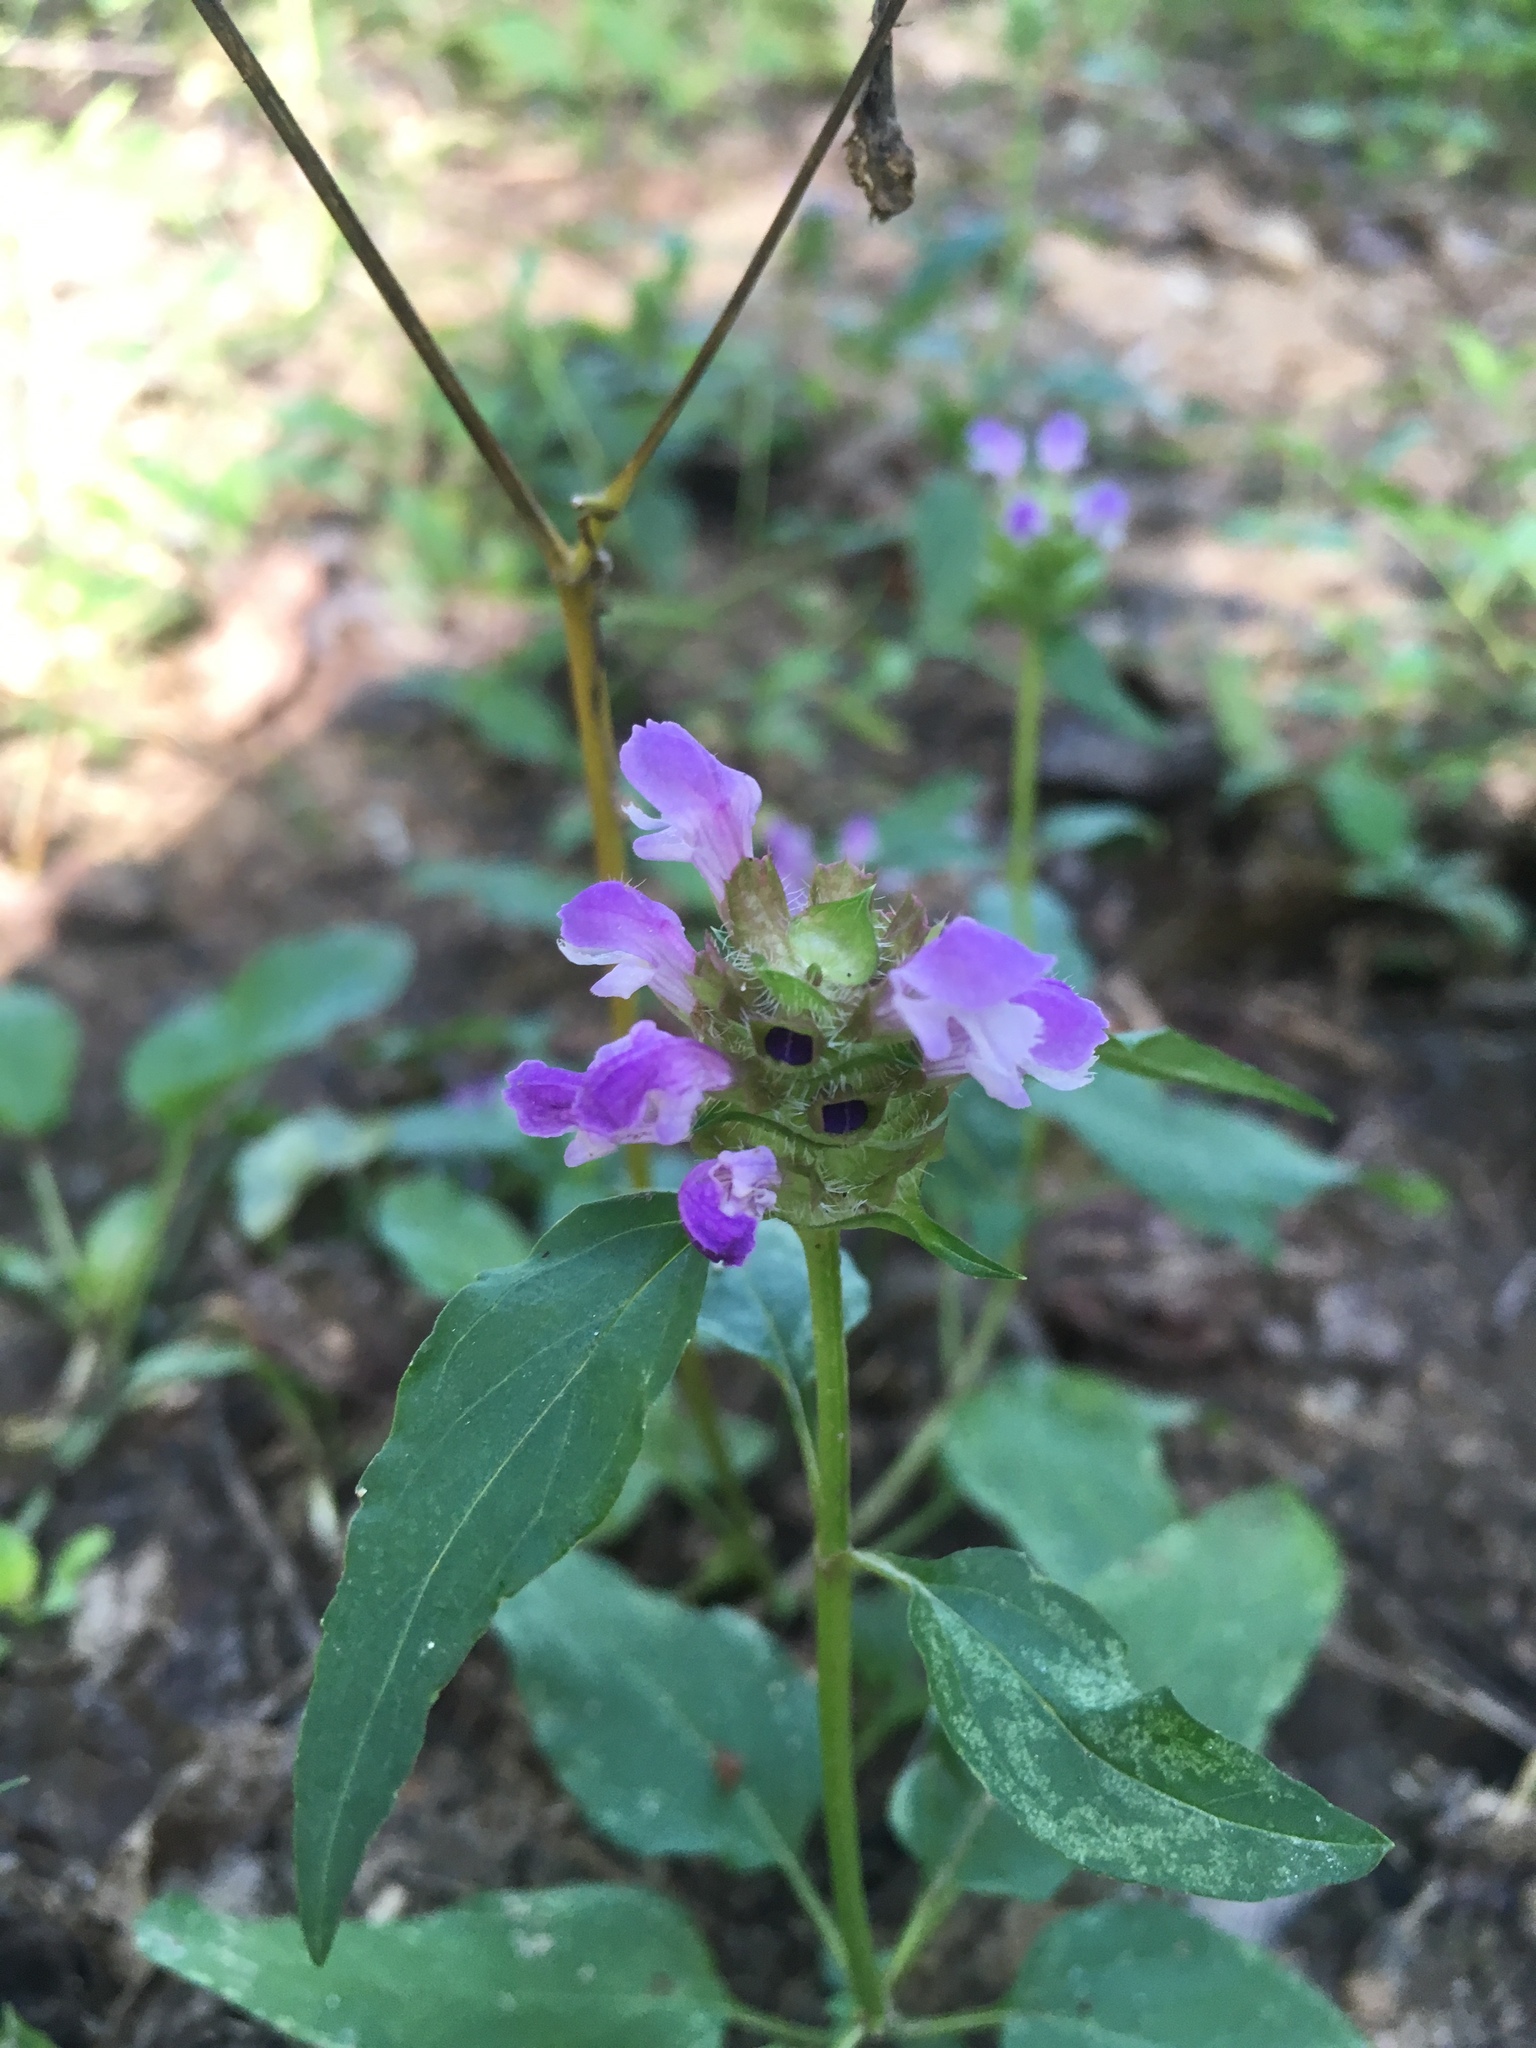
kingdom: Plantae
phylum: Tracheophyta
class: Magnoliopsida
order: Lamiales
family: Lamiaceae
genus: Prunella
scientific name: Prunella vulgaris
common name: Heal-all
